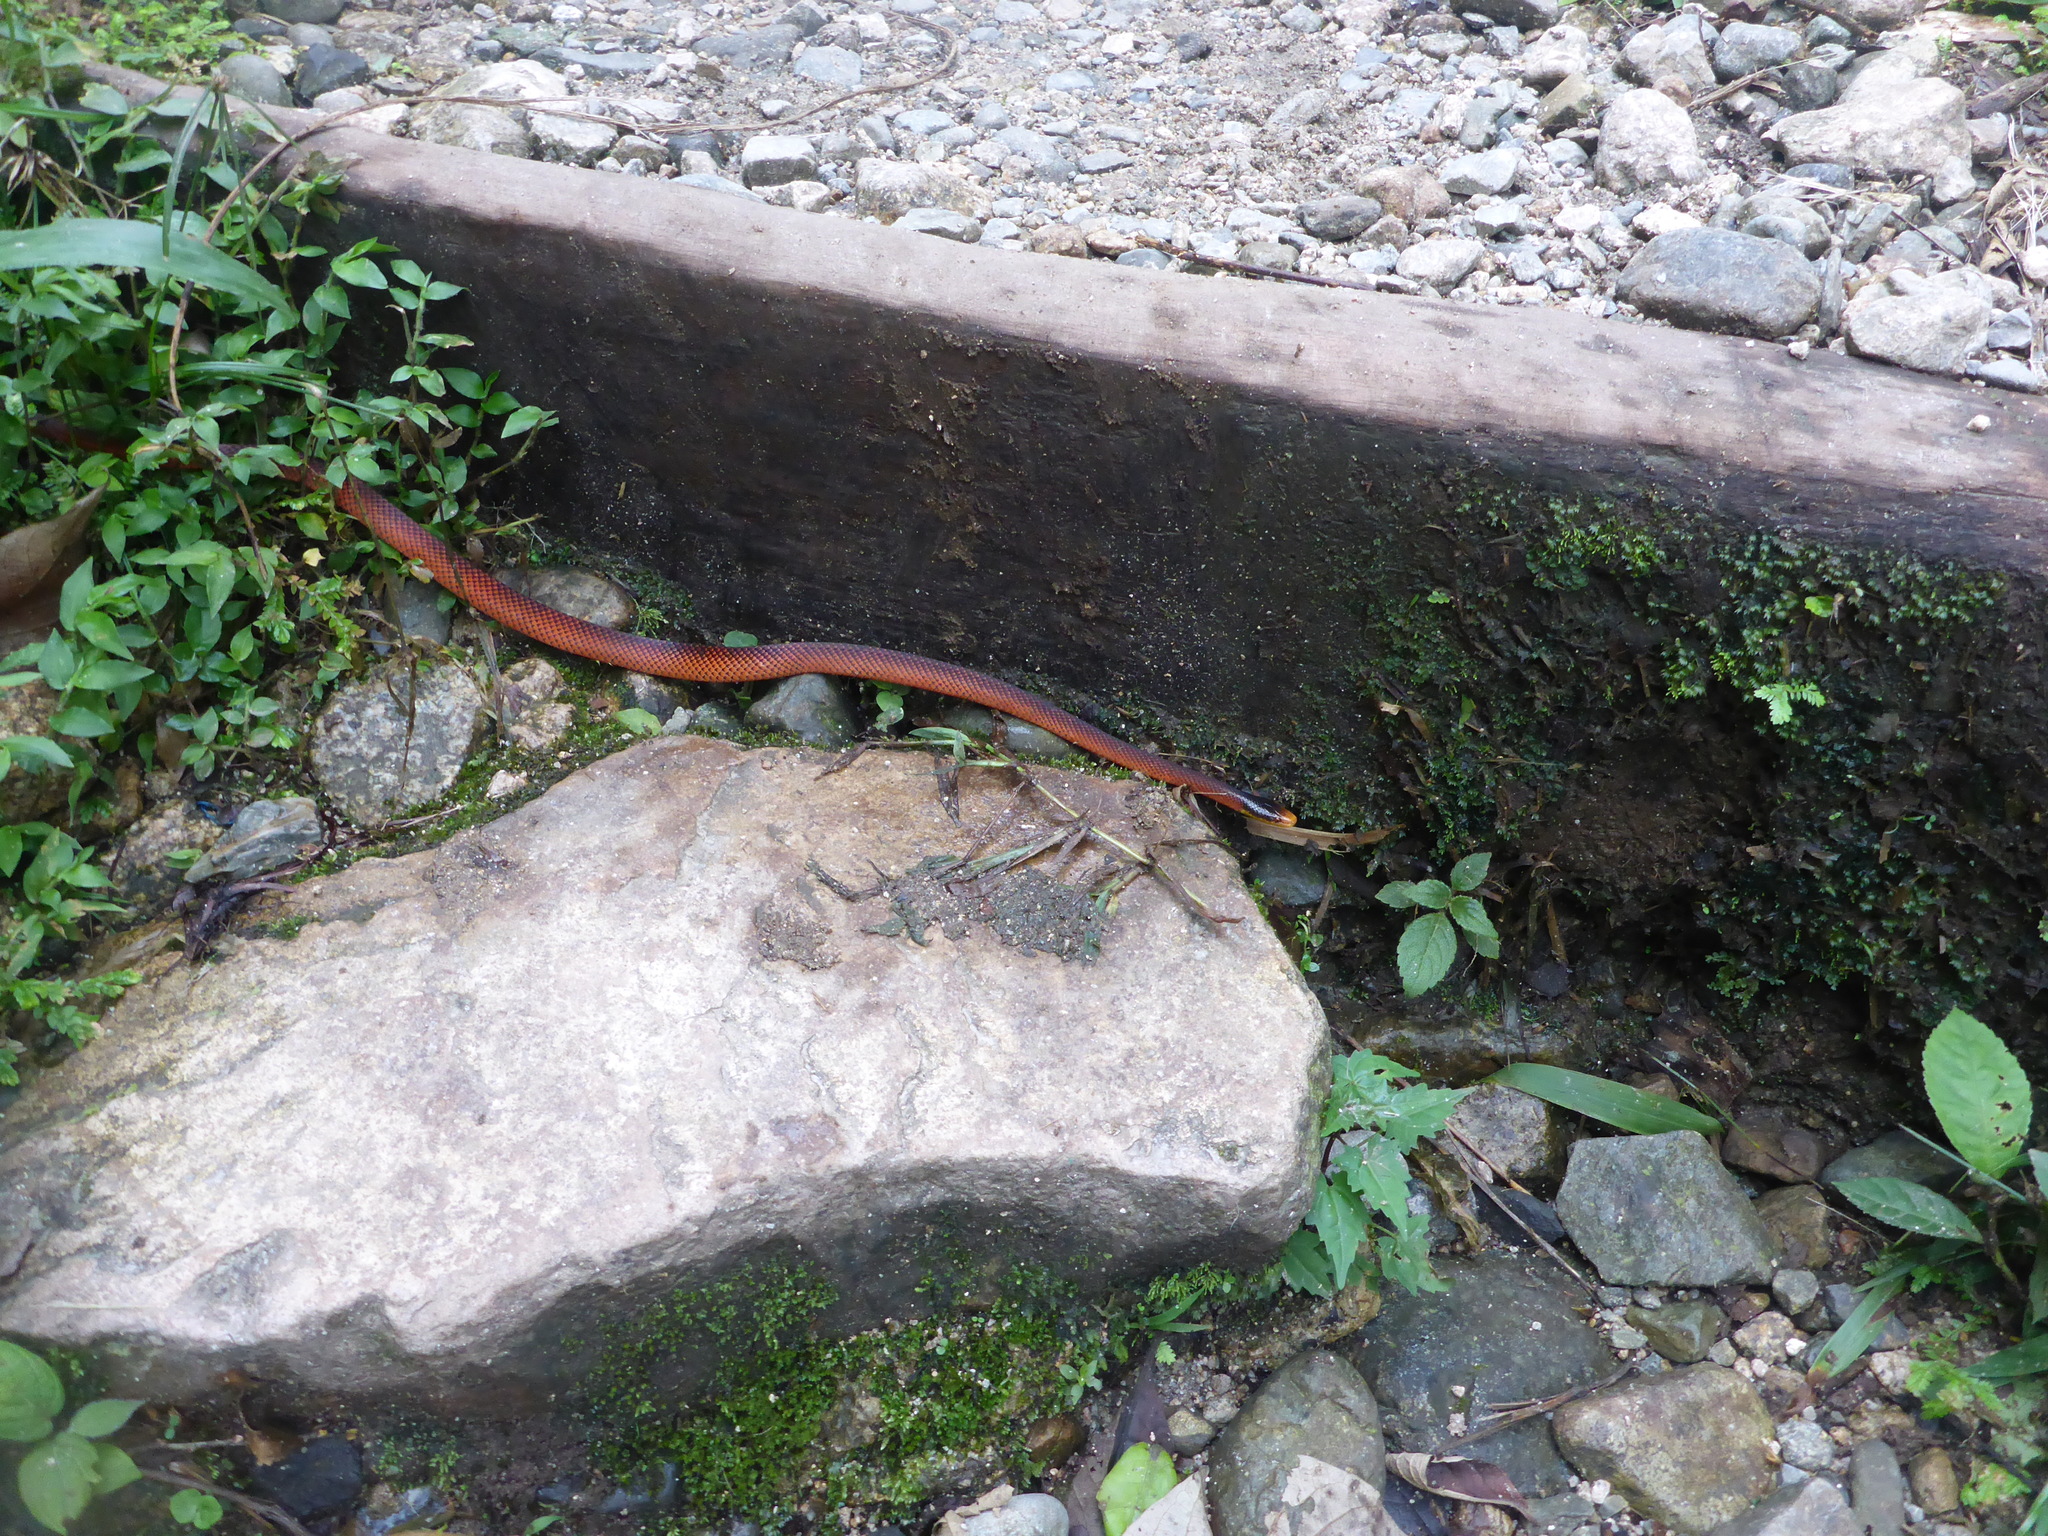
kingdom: Animalia
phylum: Chordata
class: Squamata
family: Colubridae
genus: Oxyrhopus
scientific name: Oxyrhopus formosus
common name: Beautiful calico snake
